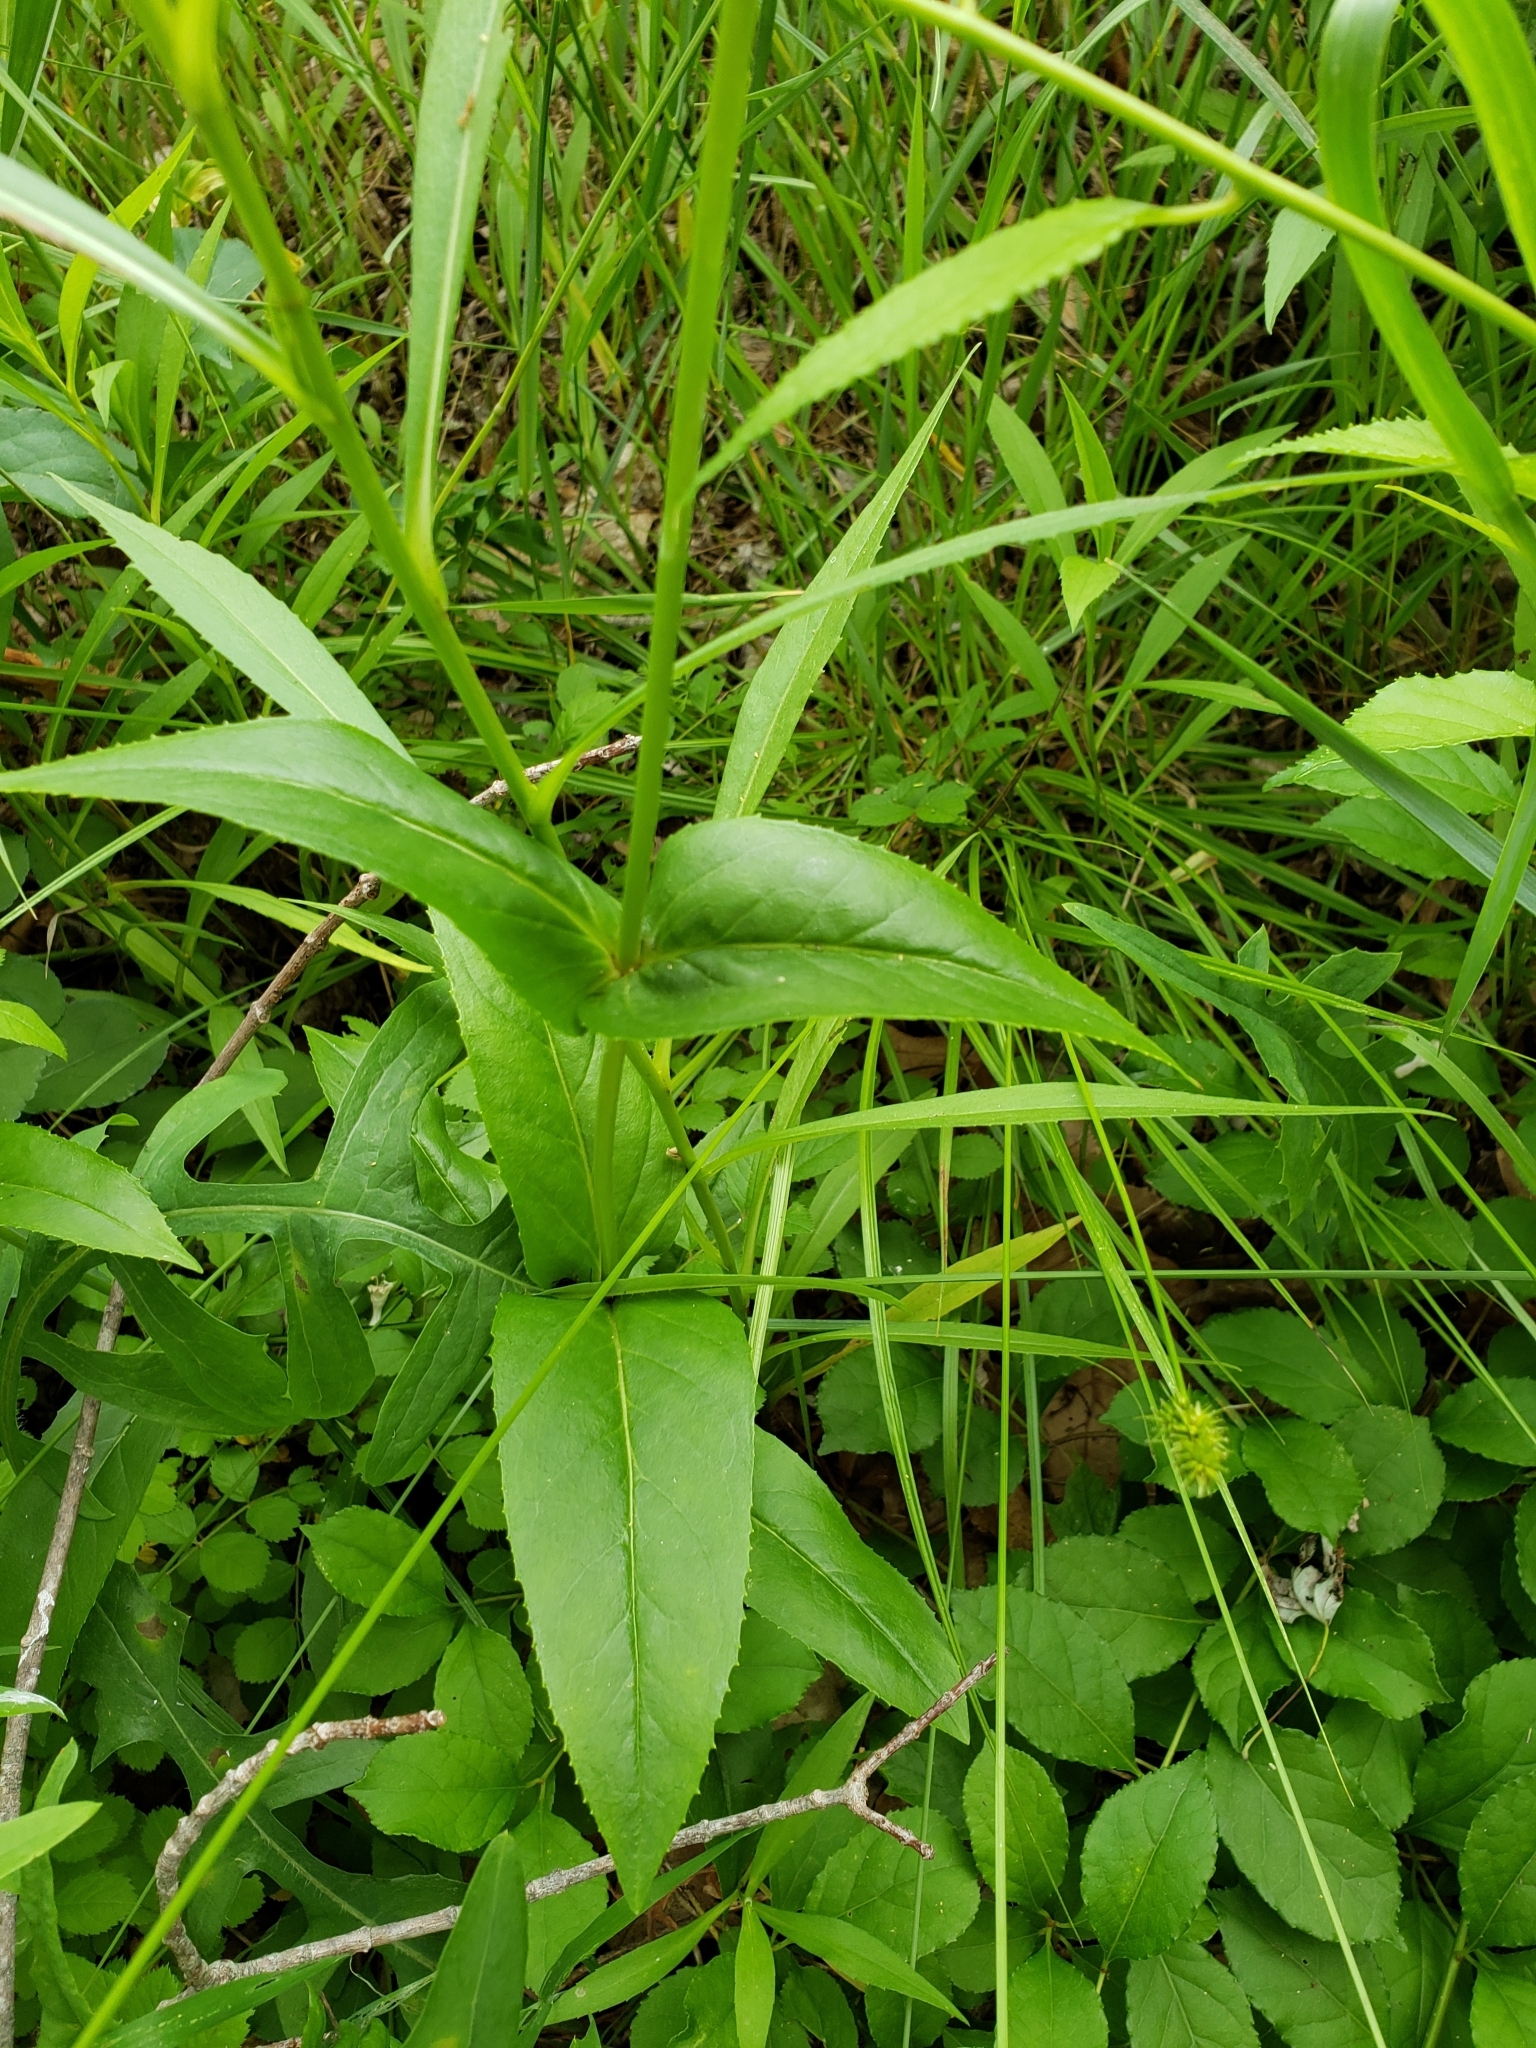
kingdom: Plantae
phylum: Tracheophyta
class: Magnoliopsida
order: Lamiales
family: Plantaginaceae
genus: Penstemon
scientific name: Penstemon digitalis
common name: Foxglove beardtongue
